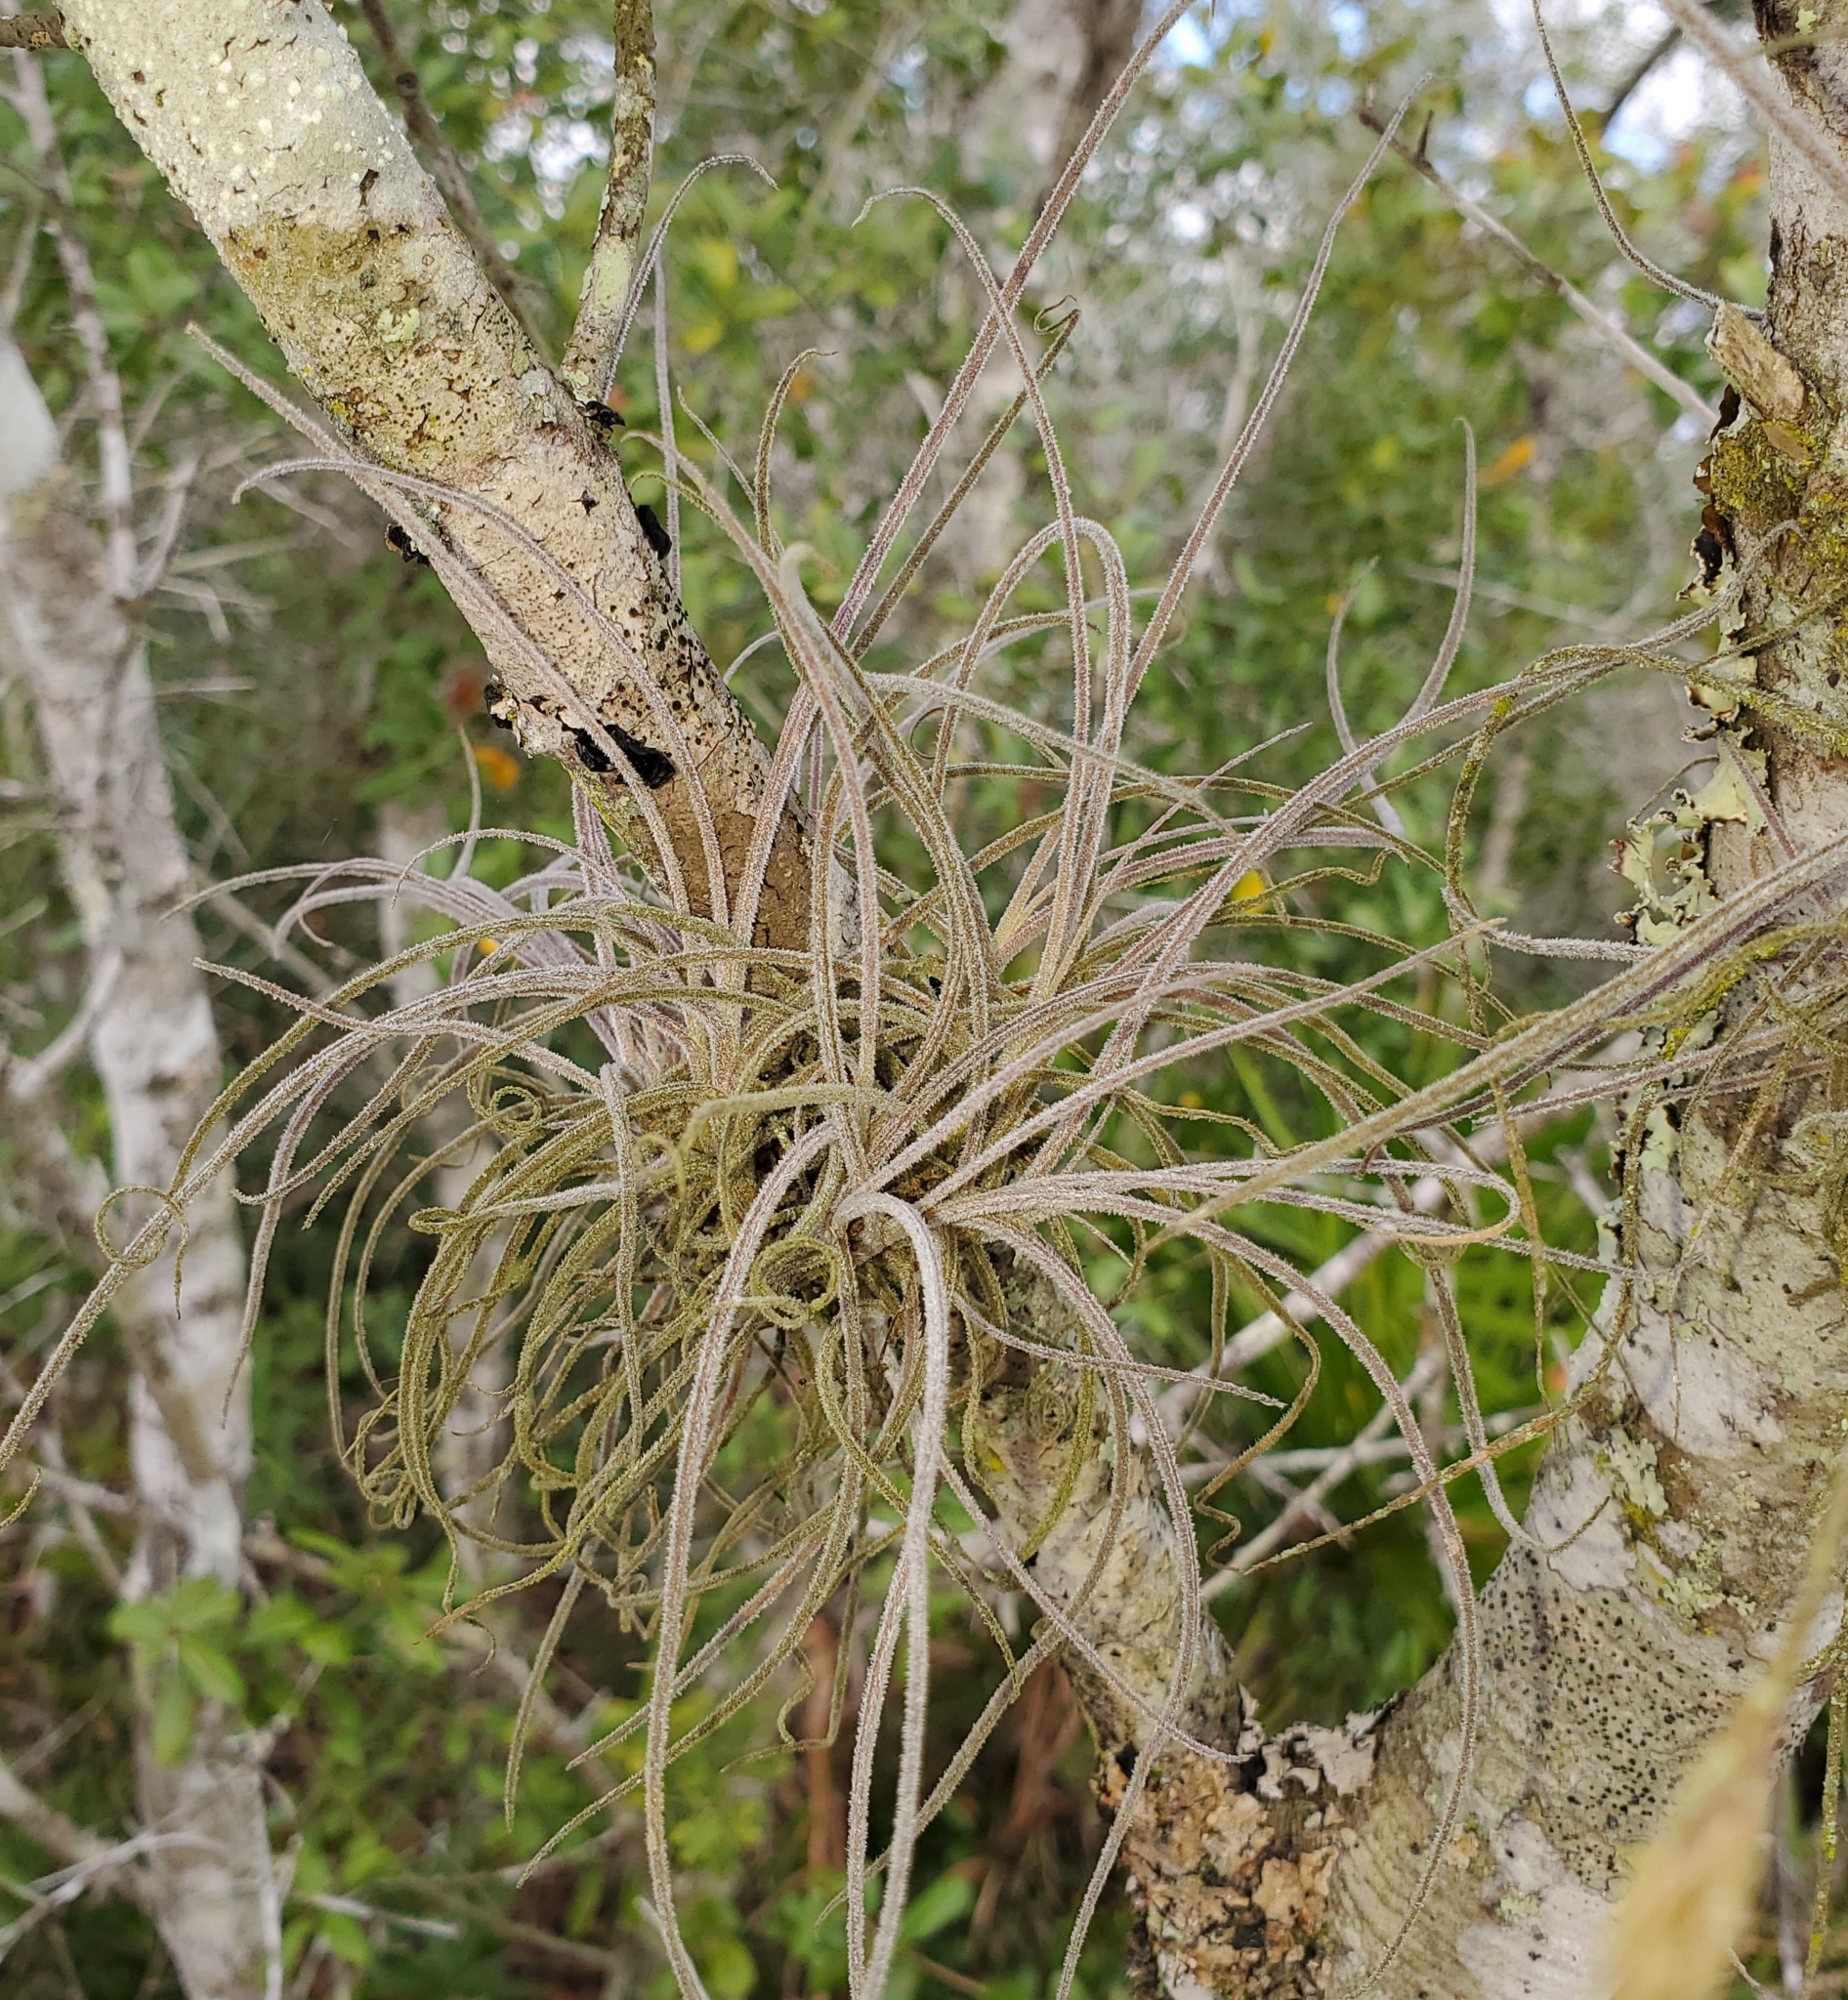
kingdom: Plantae
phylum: Tracheophyta
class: Liliopsida
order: Poales
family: Bromeliaceae
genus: Tillandsia
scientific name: Tillandsia recurvata
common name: Small ballmoss
